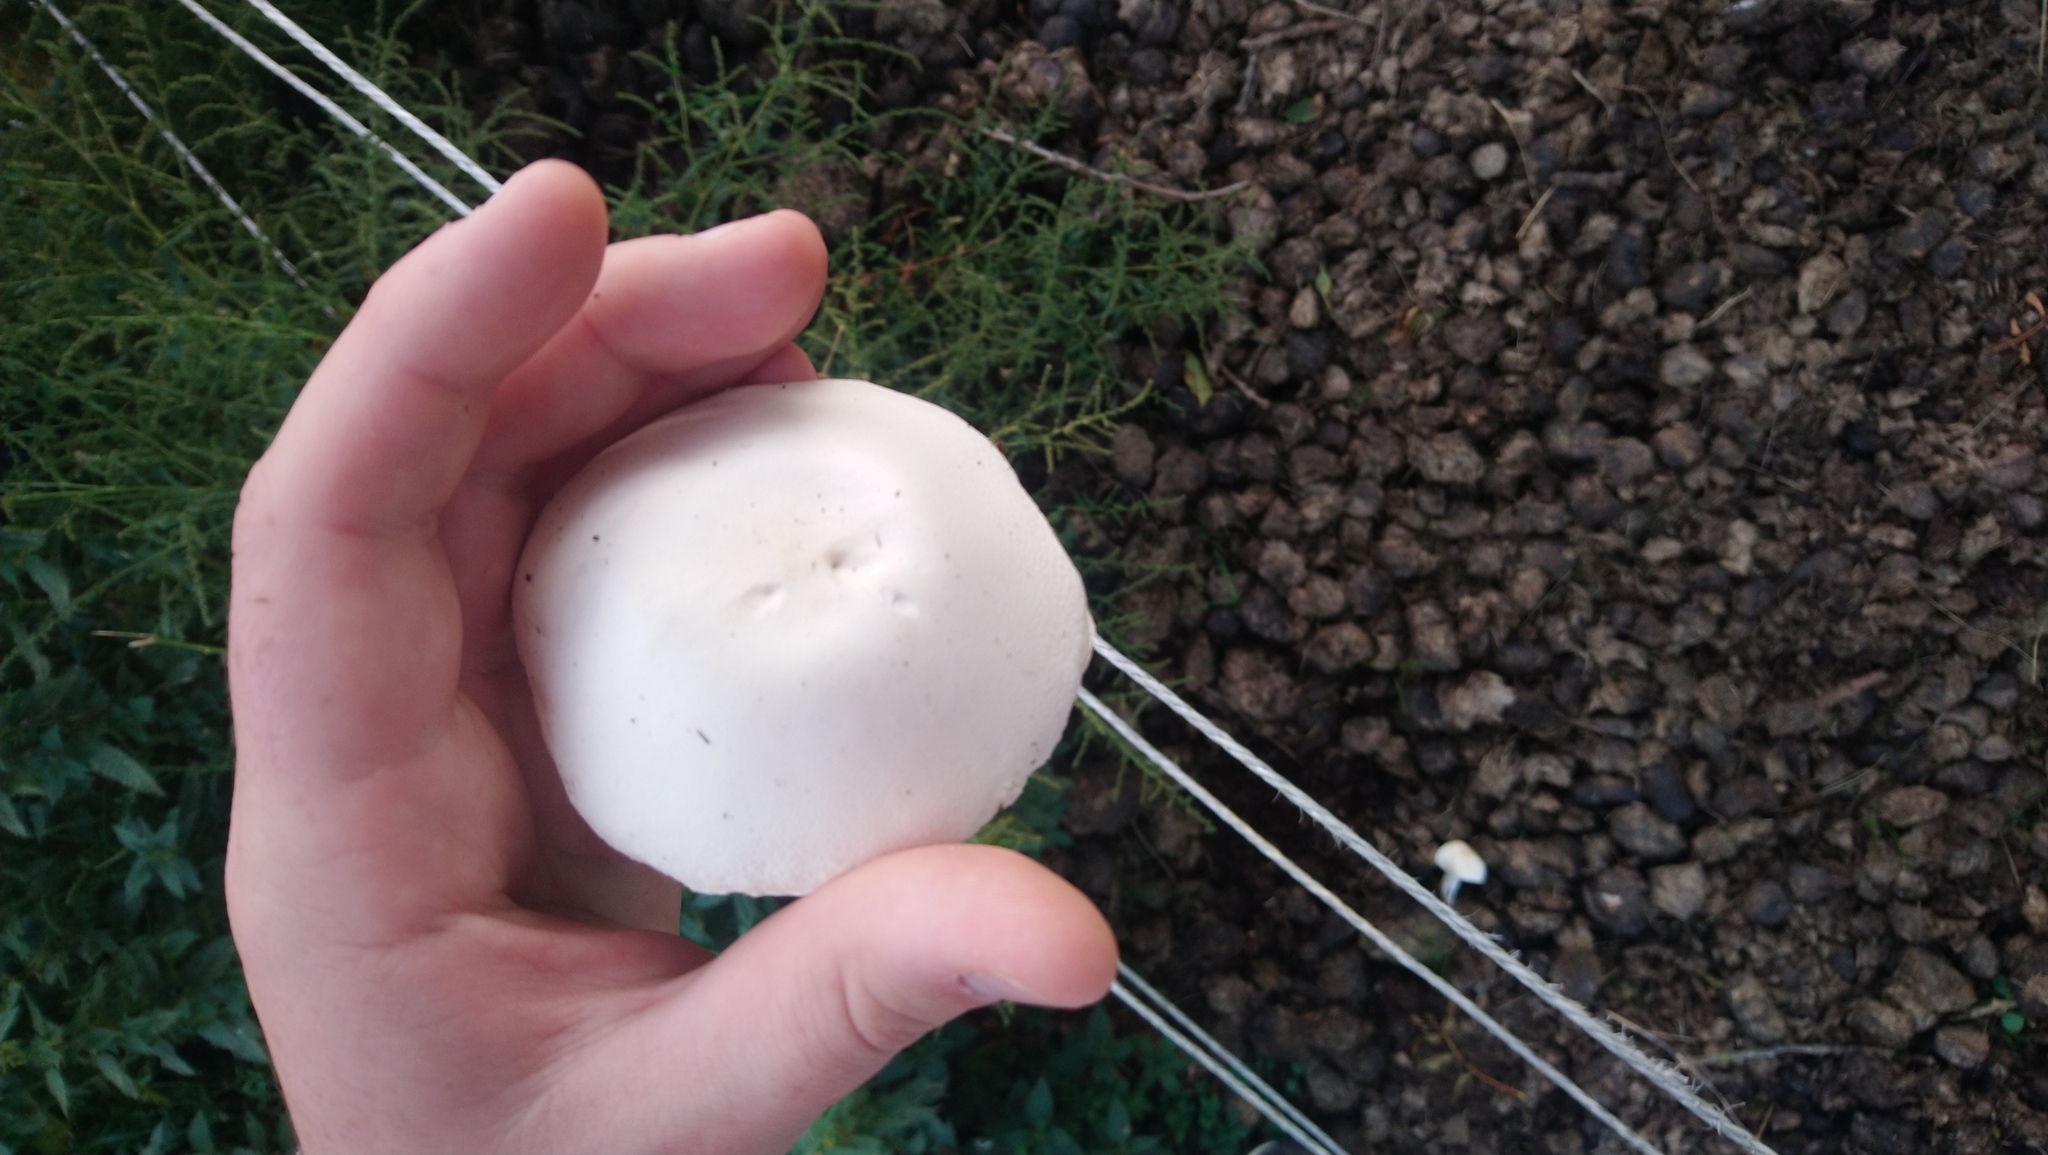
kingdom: Fungi
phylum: Basidiomycota
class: Agaricomycetes
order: Agaricales
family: Agaricaceae
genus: Leucoagaricus
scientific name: Leucoagaricus leucothites
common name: White dapperling
